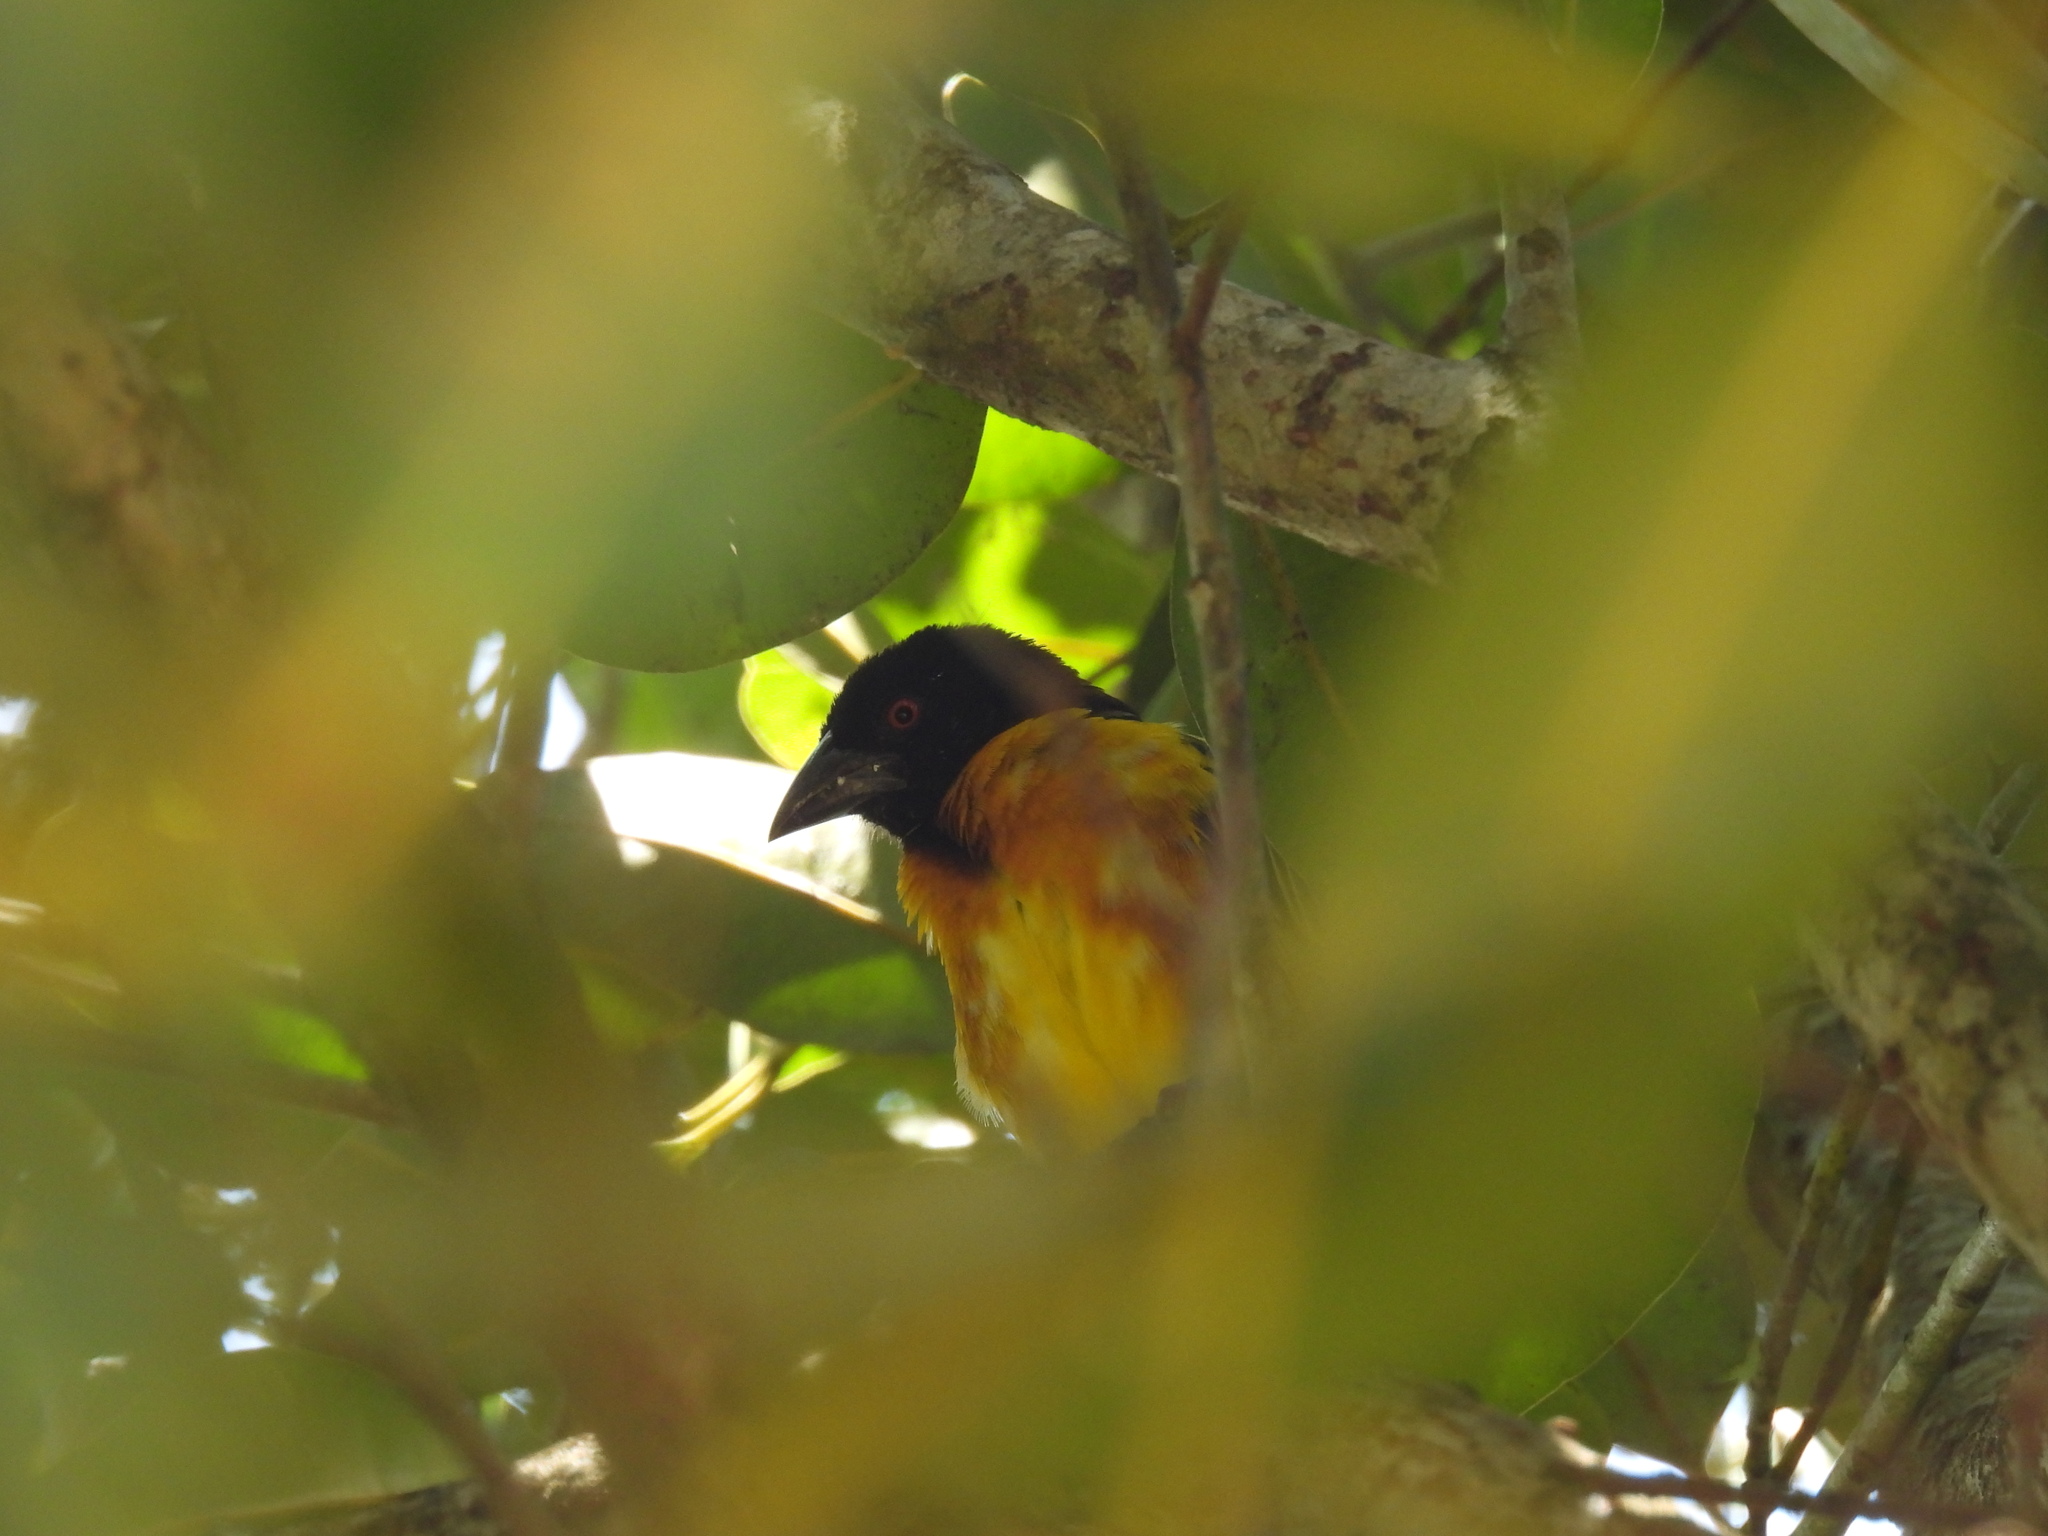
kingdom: Animalia
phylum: Chordata
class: Aves
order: Passeriformes
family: Ploceidae
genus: Ploceus
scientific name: Ploceus cucullatus
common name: Village weaver
